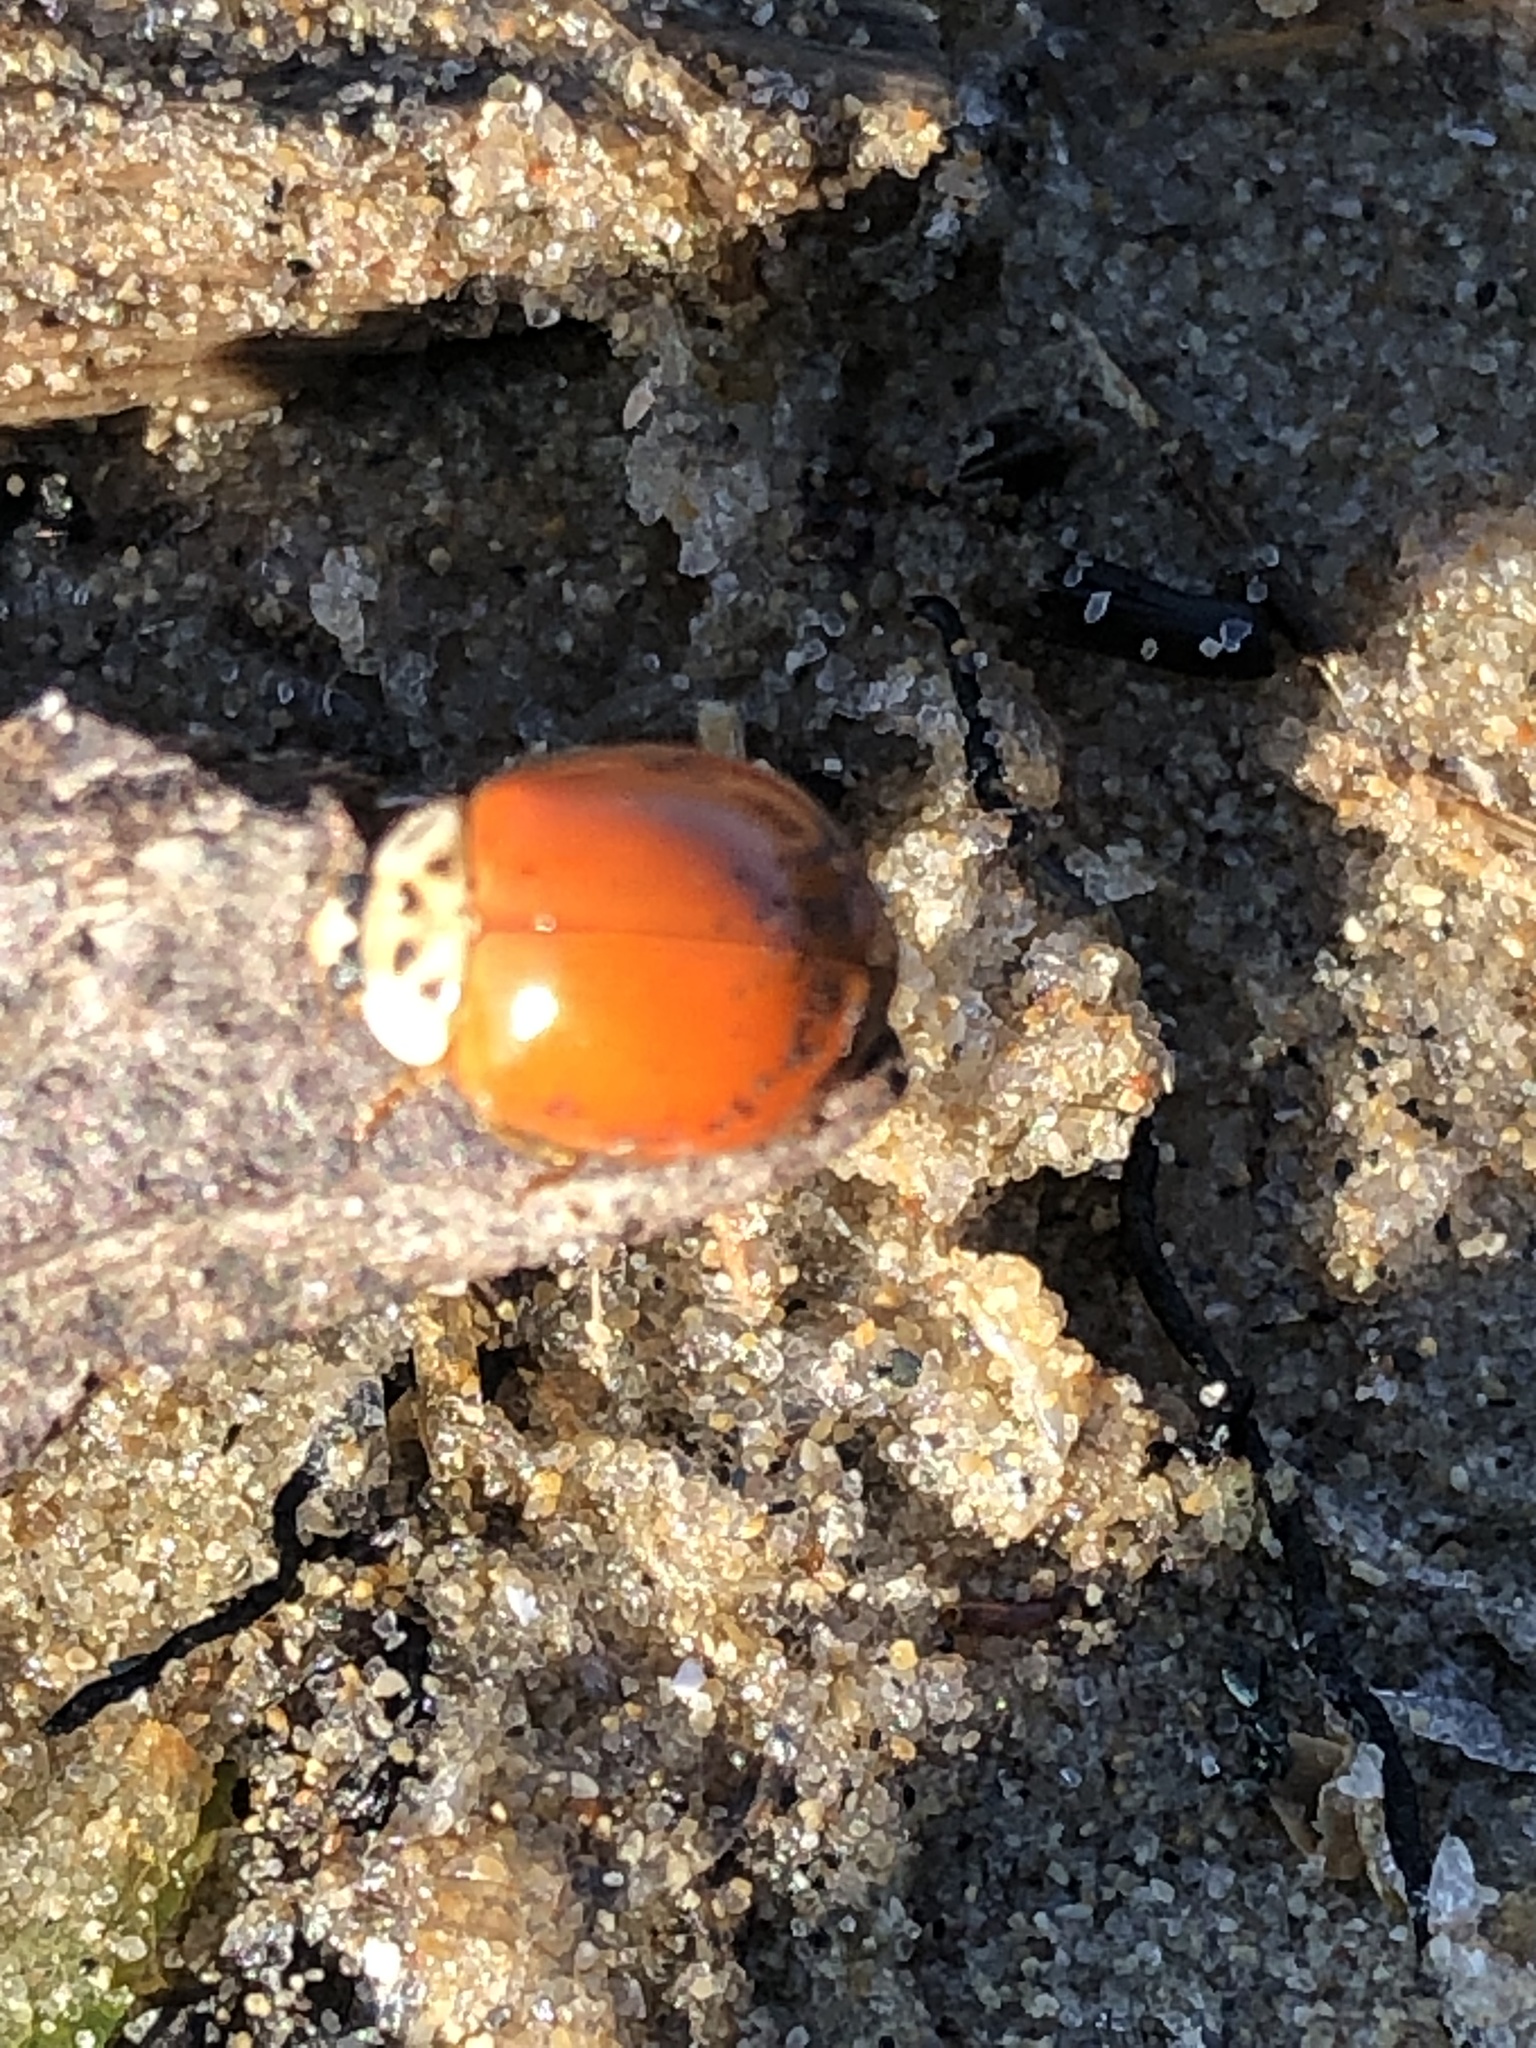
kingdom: Animalia
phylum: Arthropoda
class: Insecta
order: Coleoptera
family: Coccinellidae
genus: Harmonia
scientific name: Harmonia axyridis
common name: Harlequin ladybird
